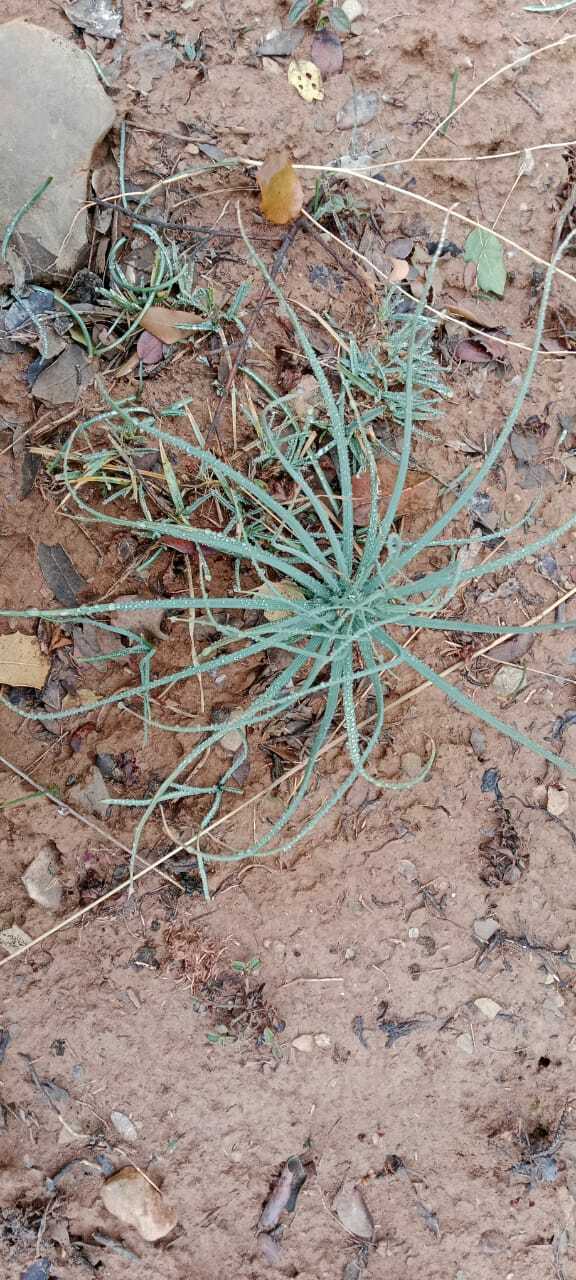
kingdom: Plantae
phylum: Tracheophyta
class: Liliopsida
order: Asparagales
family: Asphodelaceae
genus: Asphodeline
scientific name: Asphodeline lutea
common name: Yellow asphodel
